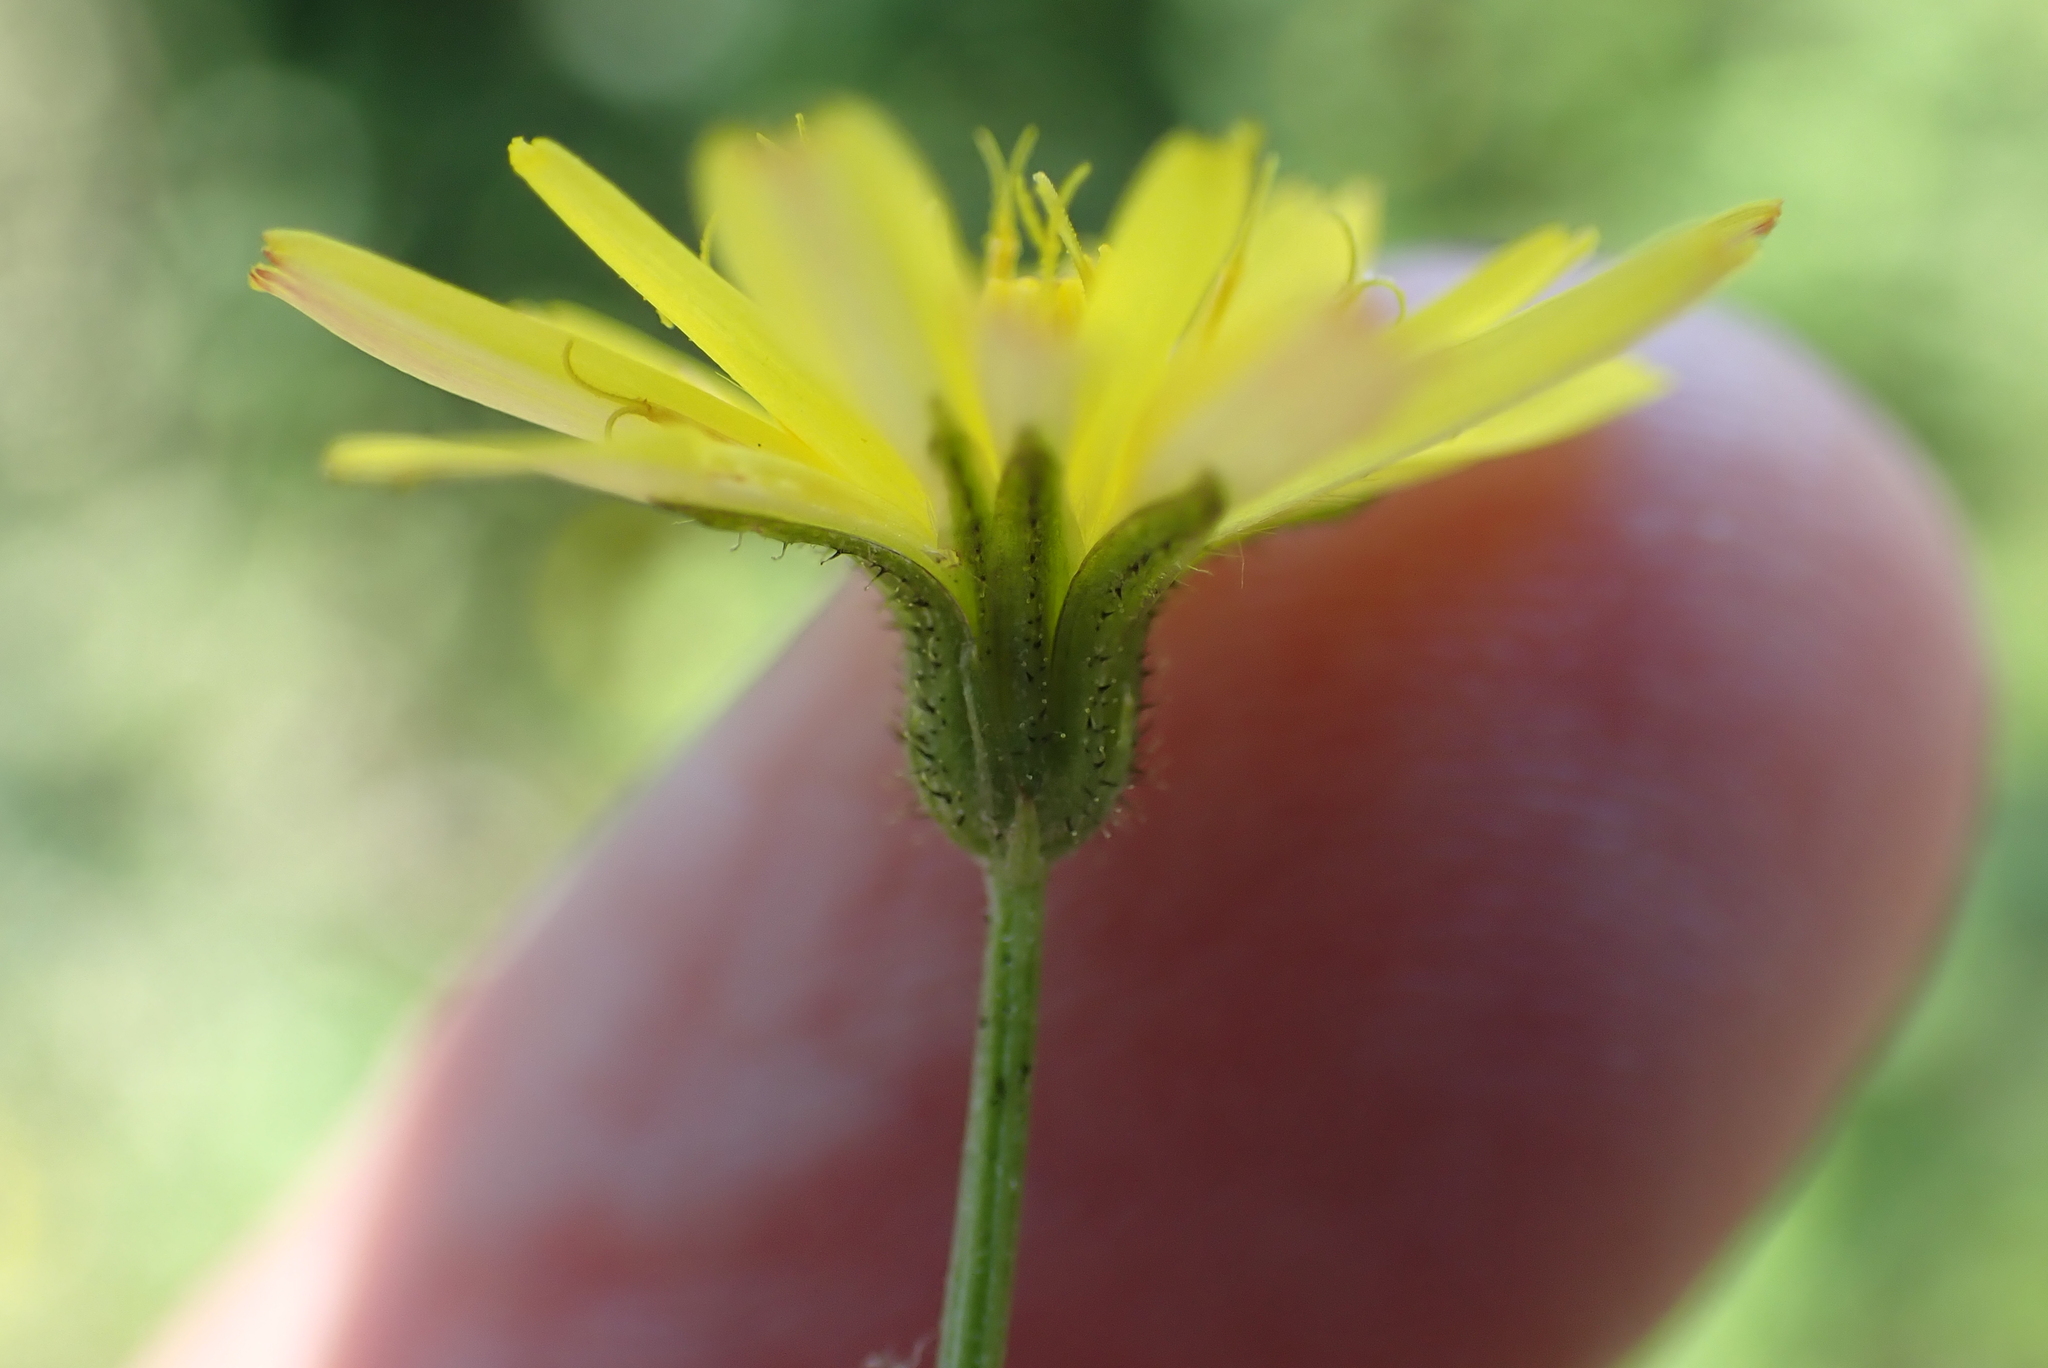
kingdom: Plantae
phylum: Tracheophyta
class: Magnoliopsida
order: Asterales
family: Asteraceae
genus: Crepis
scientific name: Crepis capillaris
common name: Smooth hawksbeard
